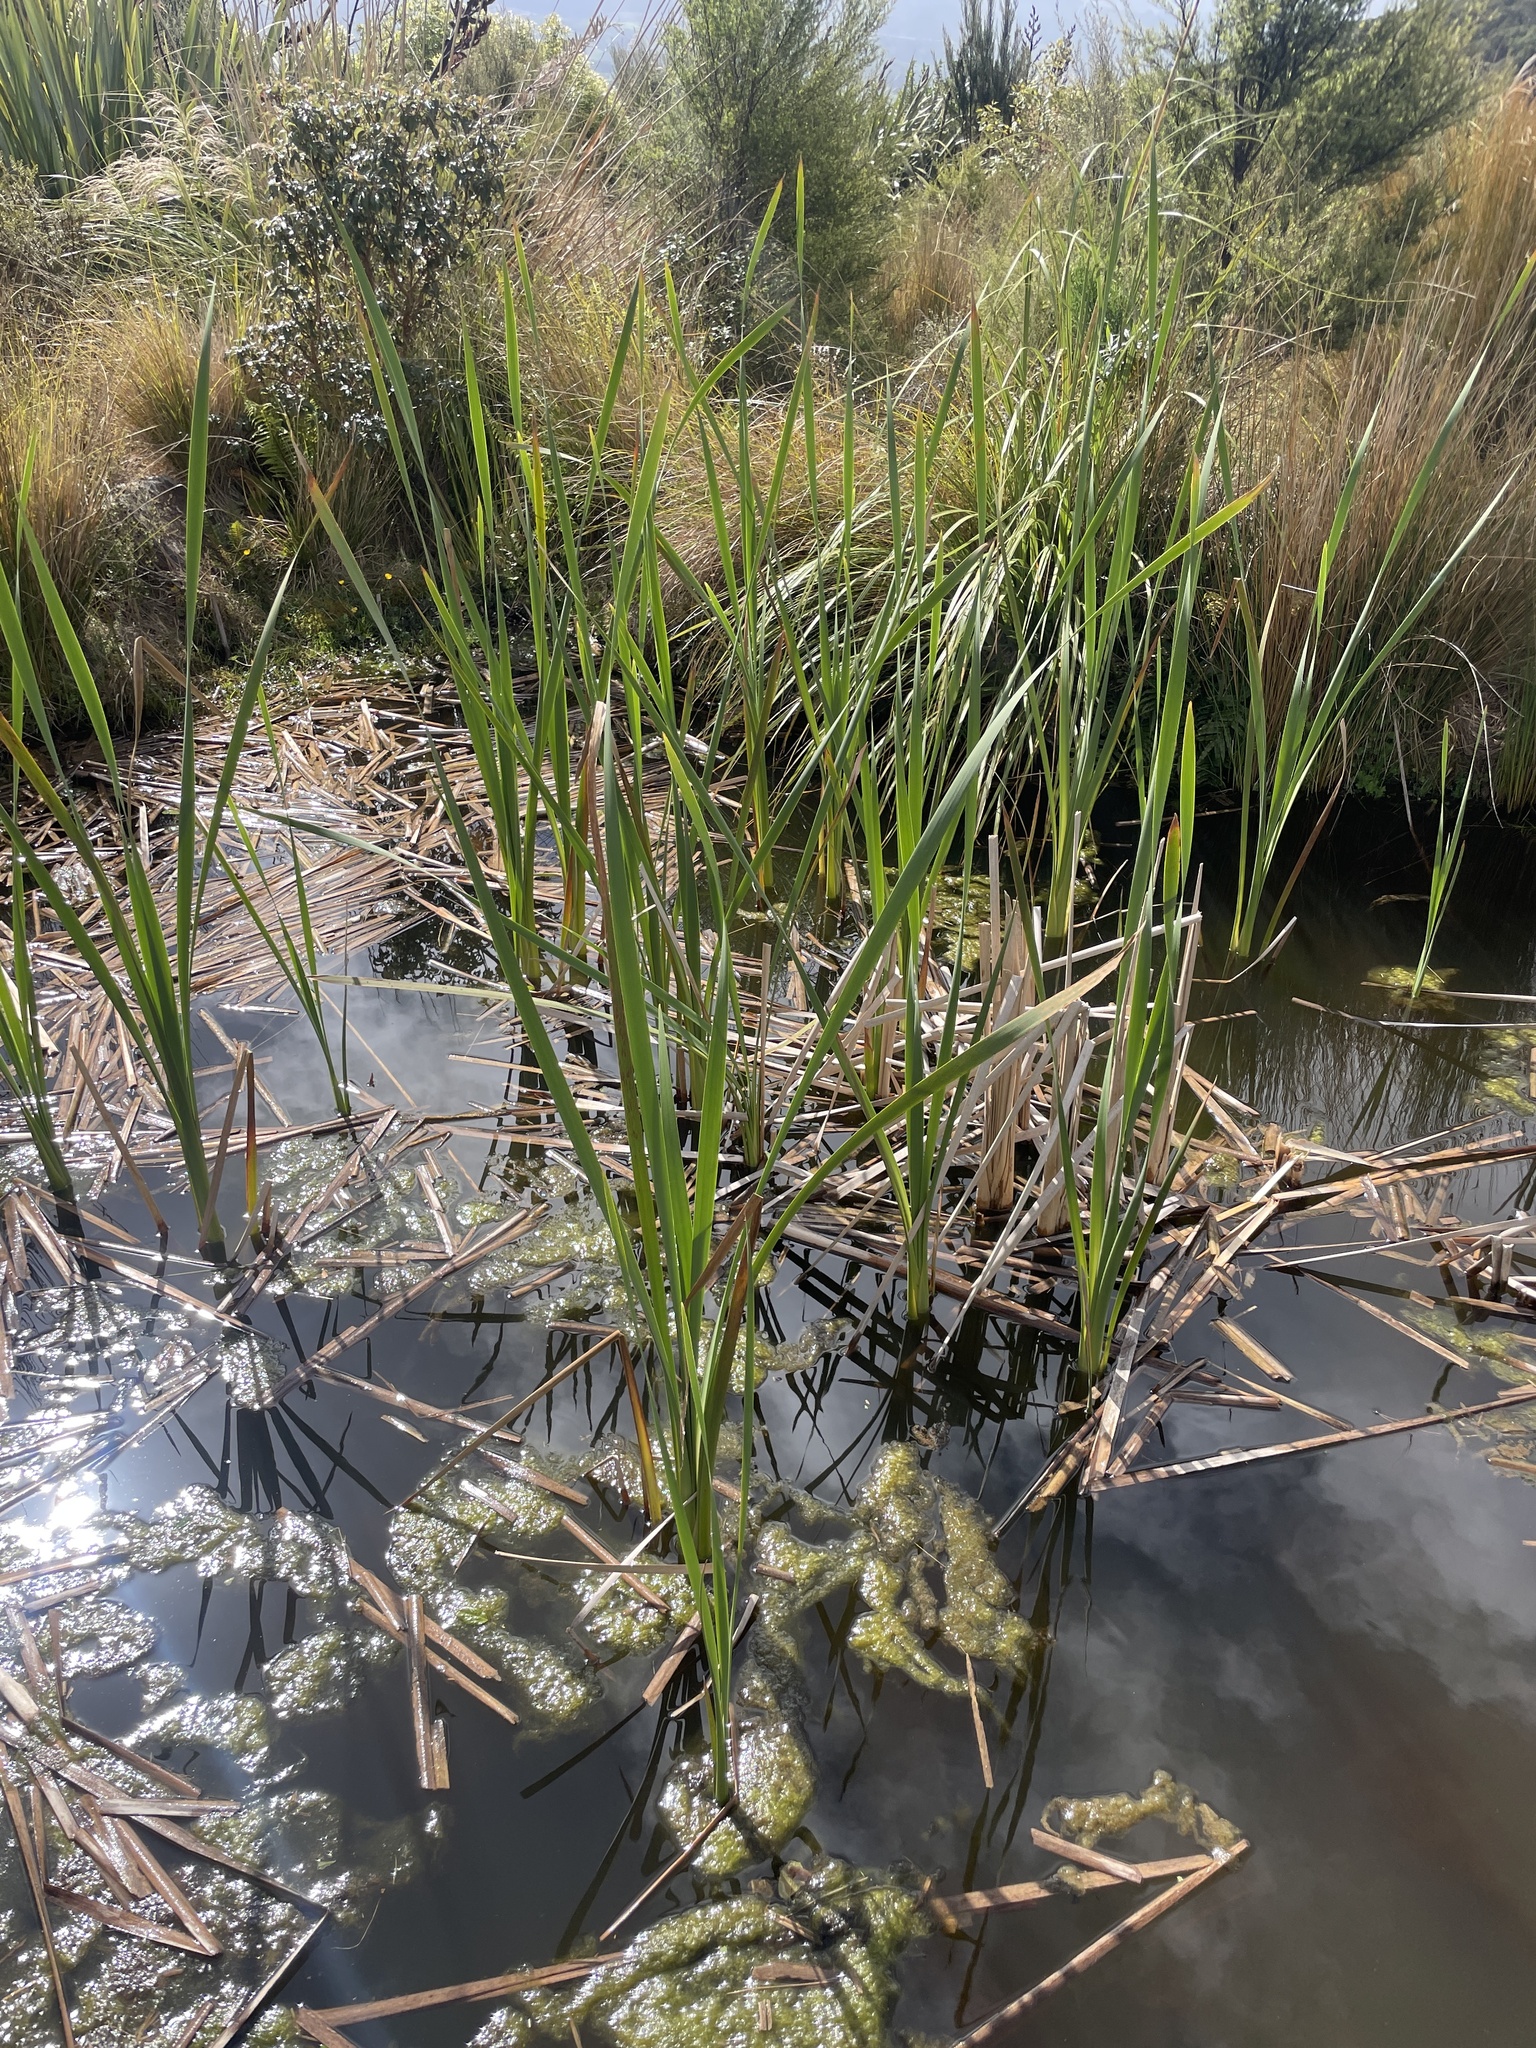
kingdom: Plantae
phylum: Tracheophyta
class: Liliopsida
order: Poales
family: Typhaceae
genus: Typha
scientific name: Typha orientalis
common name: Bullrush
